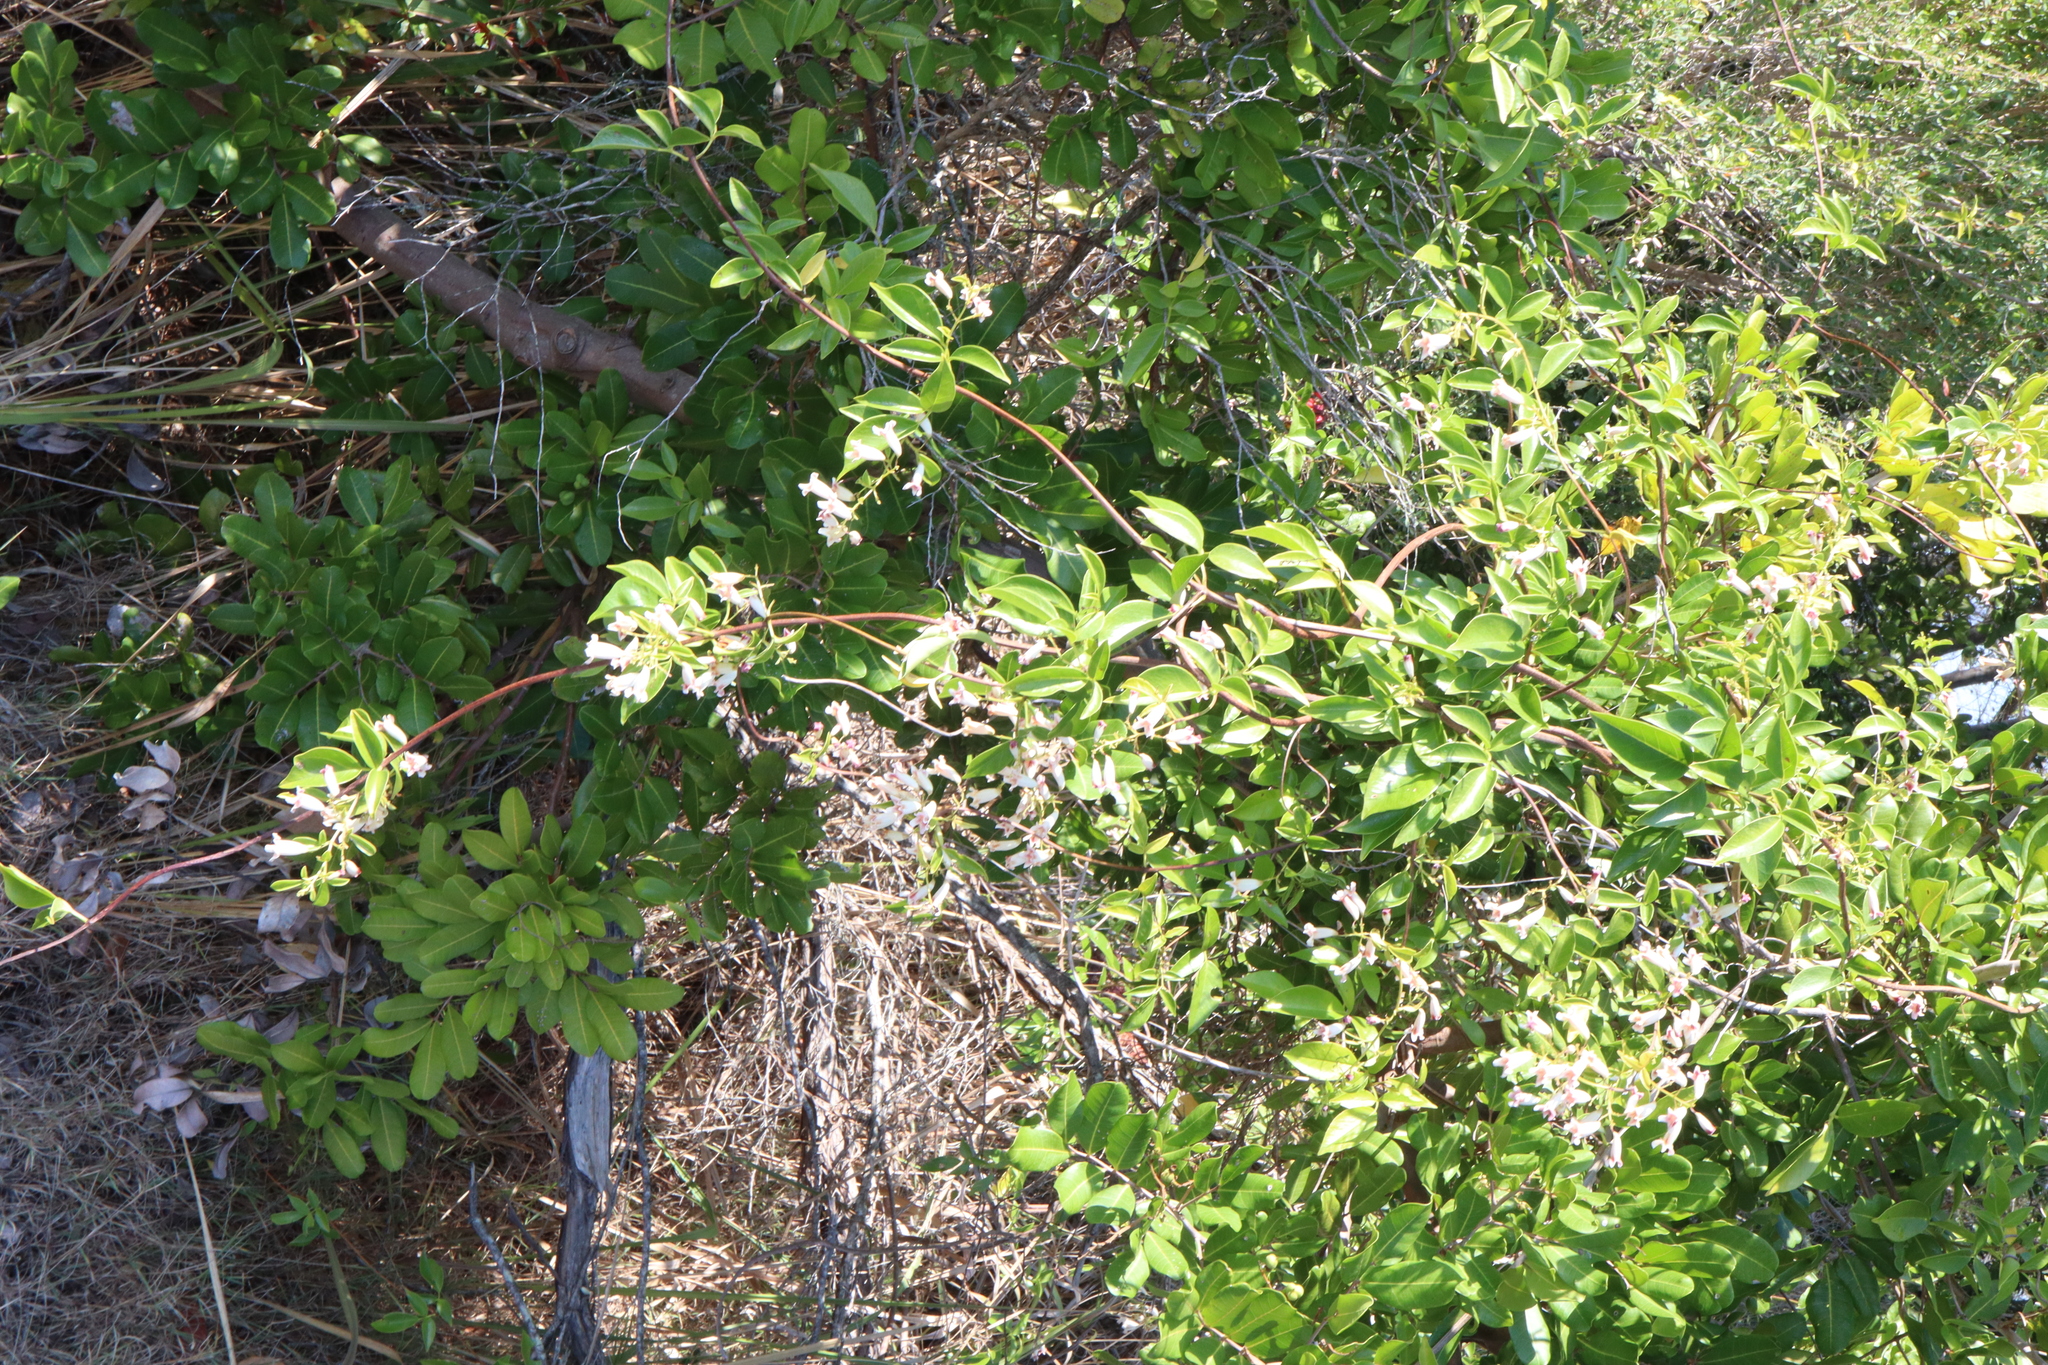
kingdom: Plantae
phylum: Tracheophyta
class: Magnoliopsida
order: Lamiales
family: Bignoniaceae
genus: Pandorea
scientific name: Pandorea pandorana
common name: Wonga-wonga-vine
